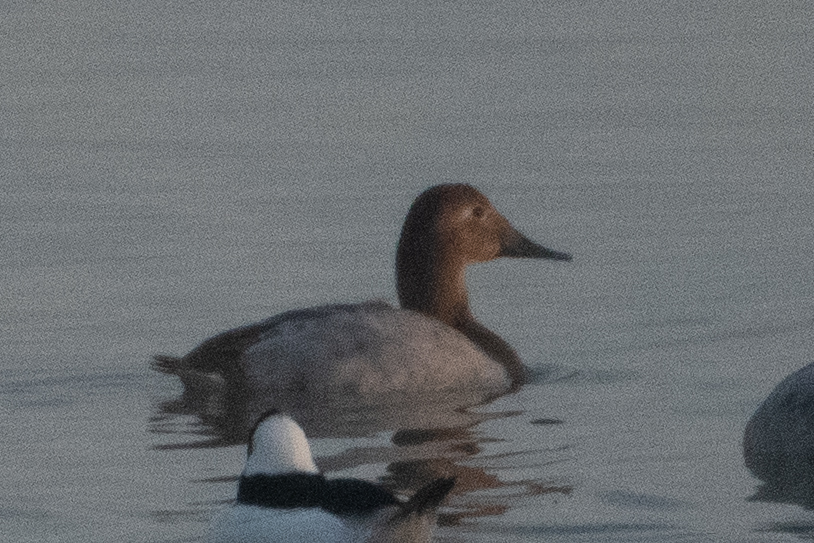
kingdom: Animalia
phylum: Chordata
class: Aves
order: Anseriformes
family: Anatidae
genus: Aythya
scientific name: Aythya valisineria
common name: Canvasback
